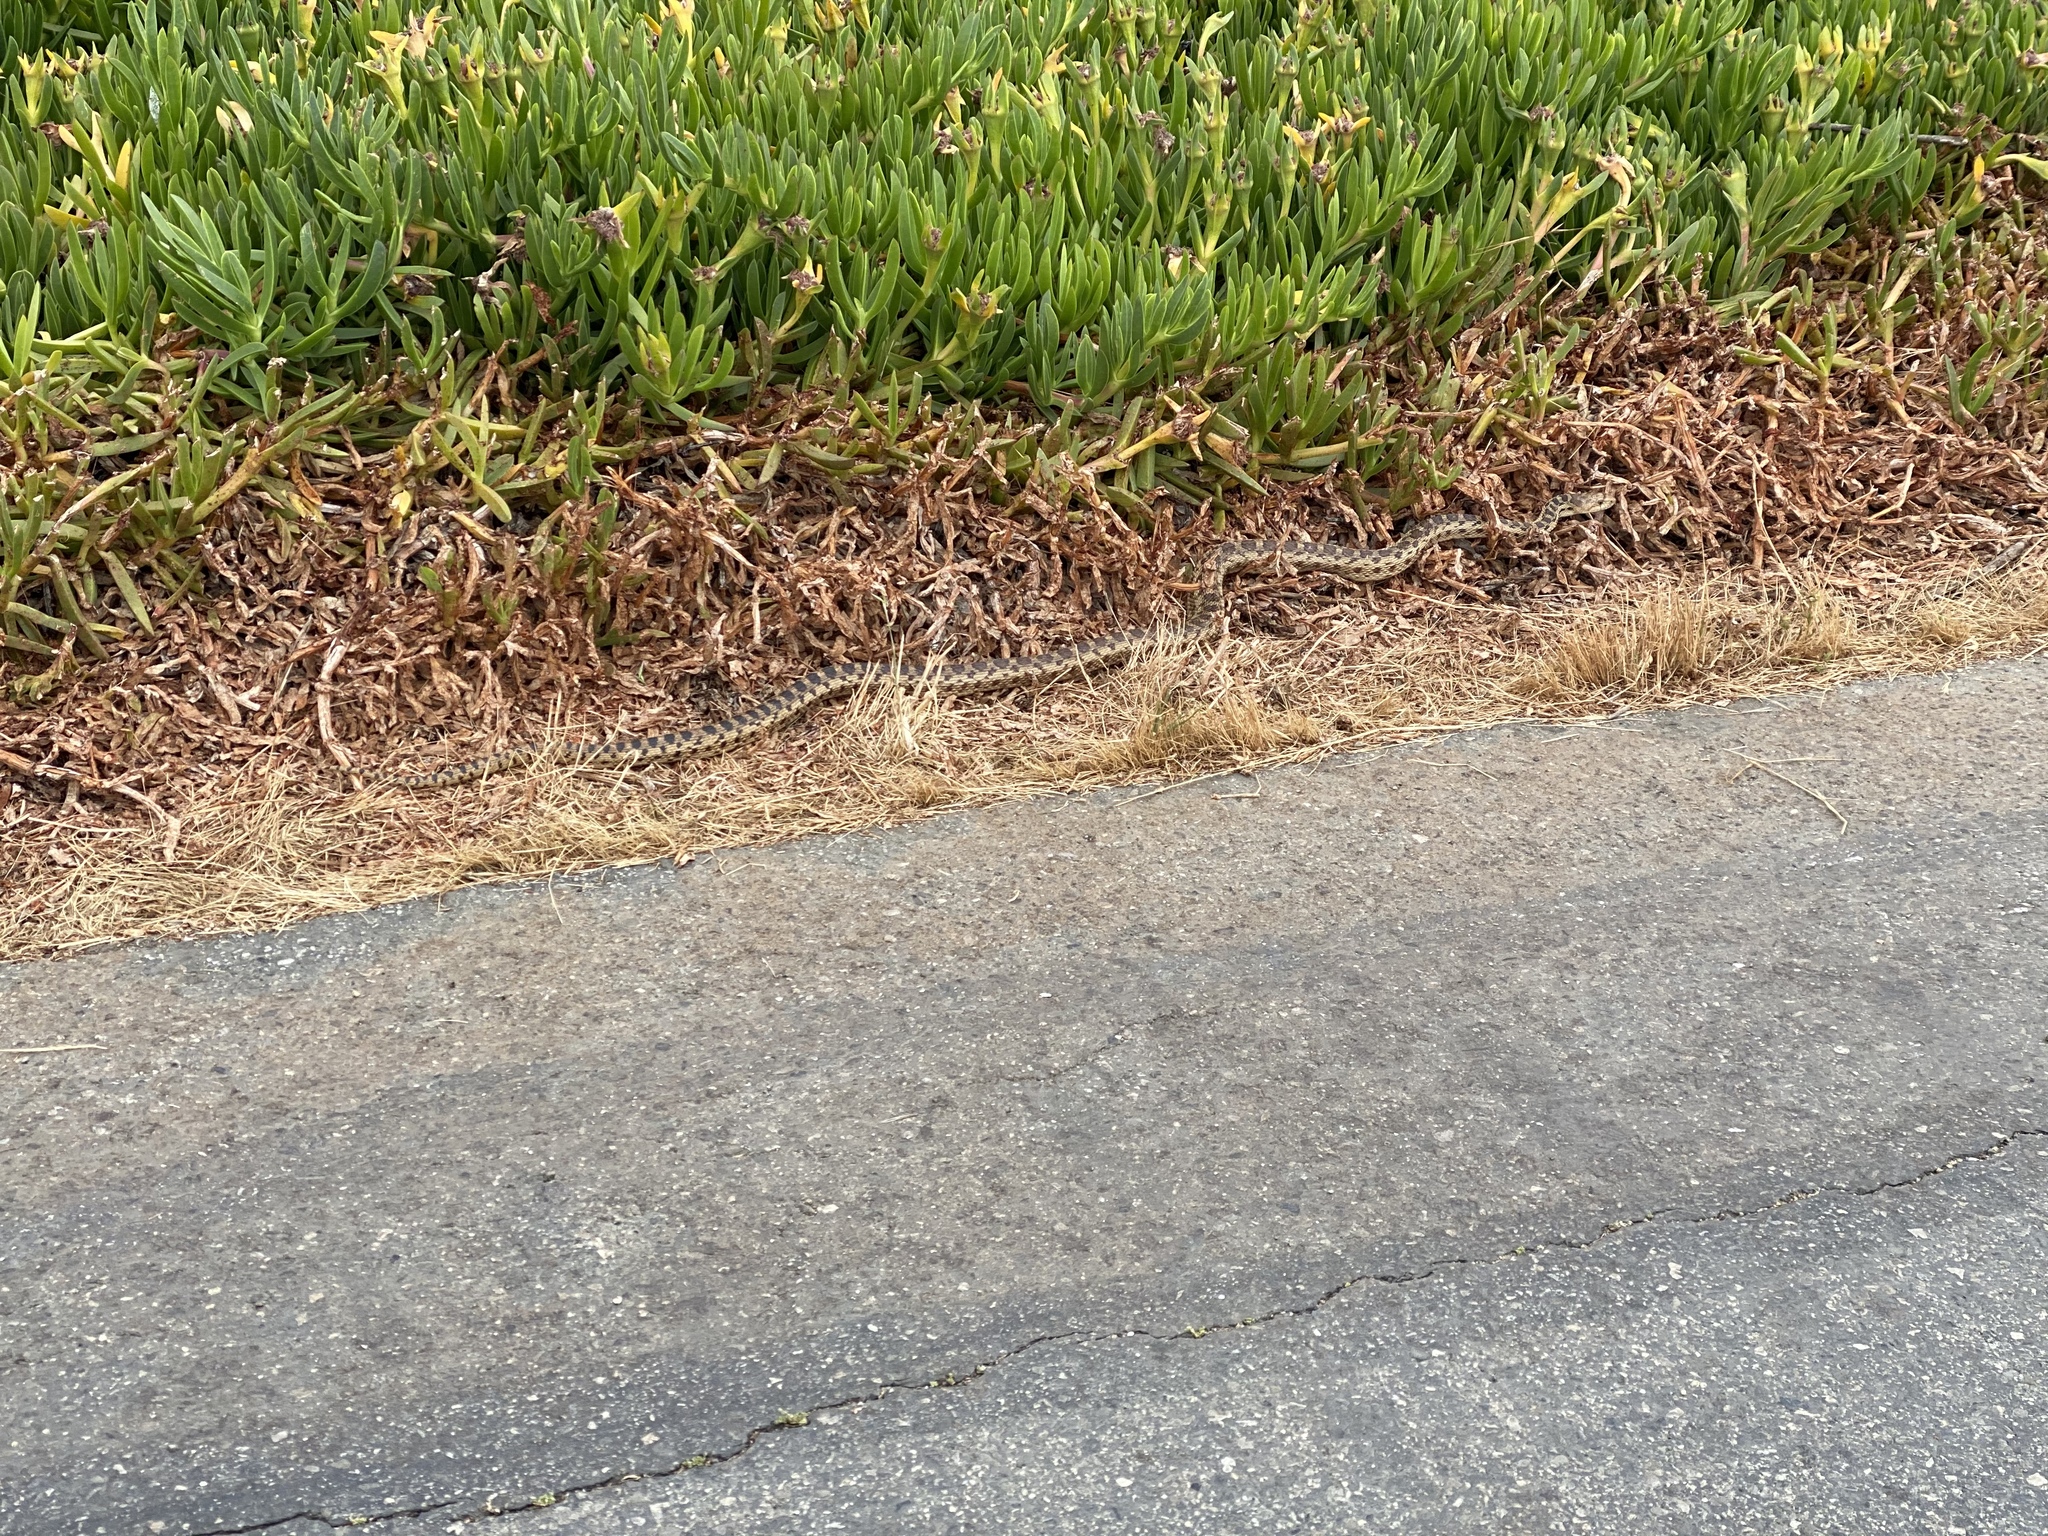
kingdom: Animalia
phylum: Chordata
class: Squamata
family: Colubridae
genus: Pituophis
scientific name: Pituophis catenifer
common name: Gopher snake
